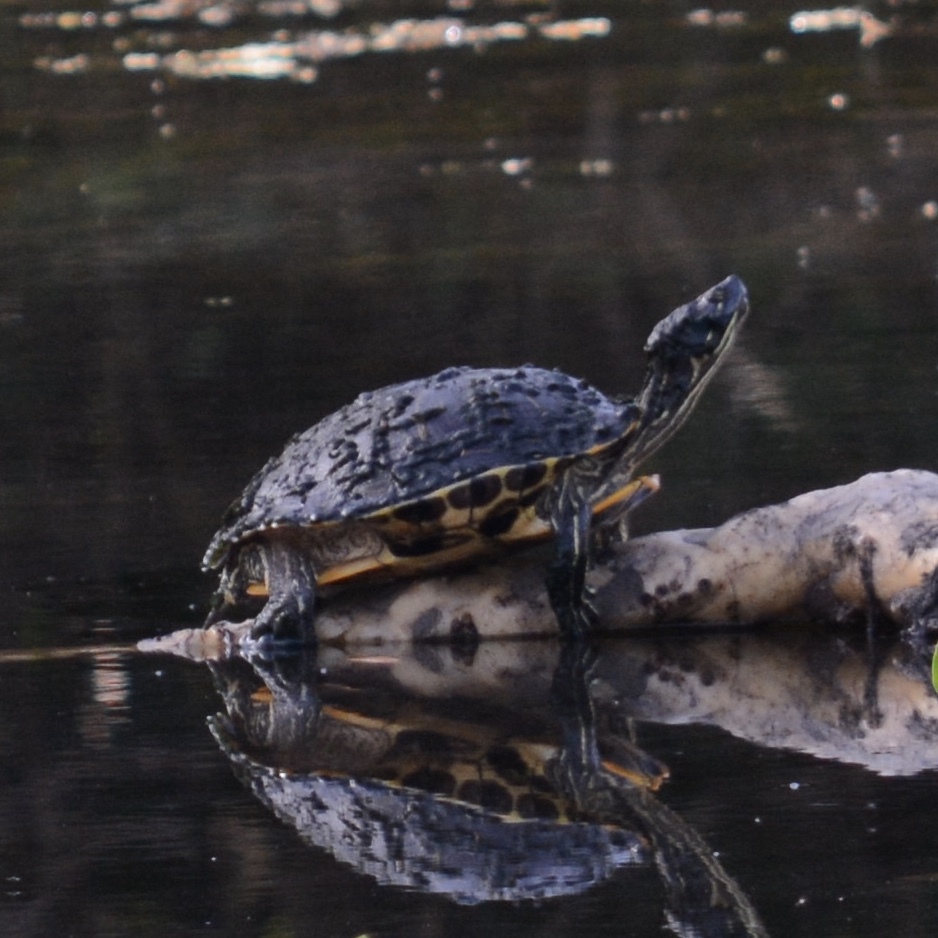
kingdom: Animalia
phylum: Chordata
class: Testudines
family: Emydidae
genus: Trachemys
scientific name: Trachemys scripta
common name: Slider
